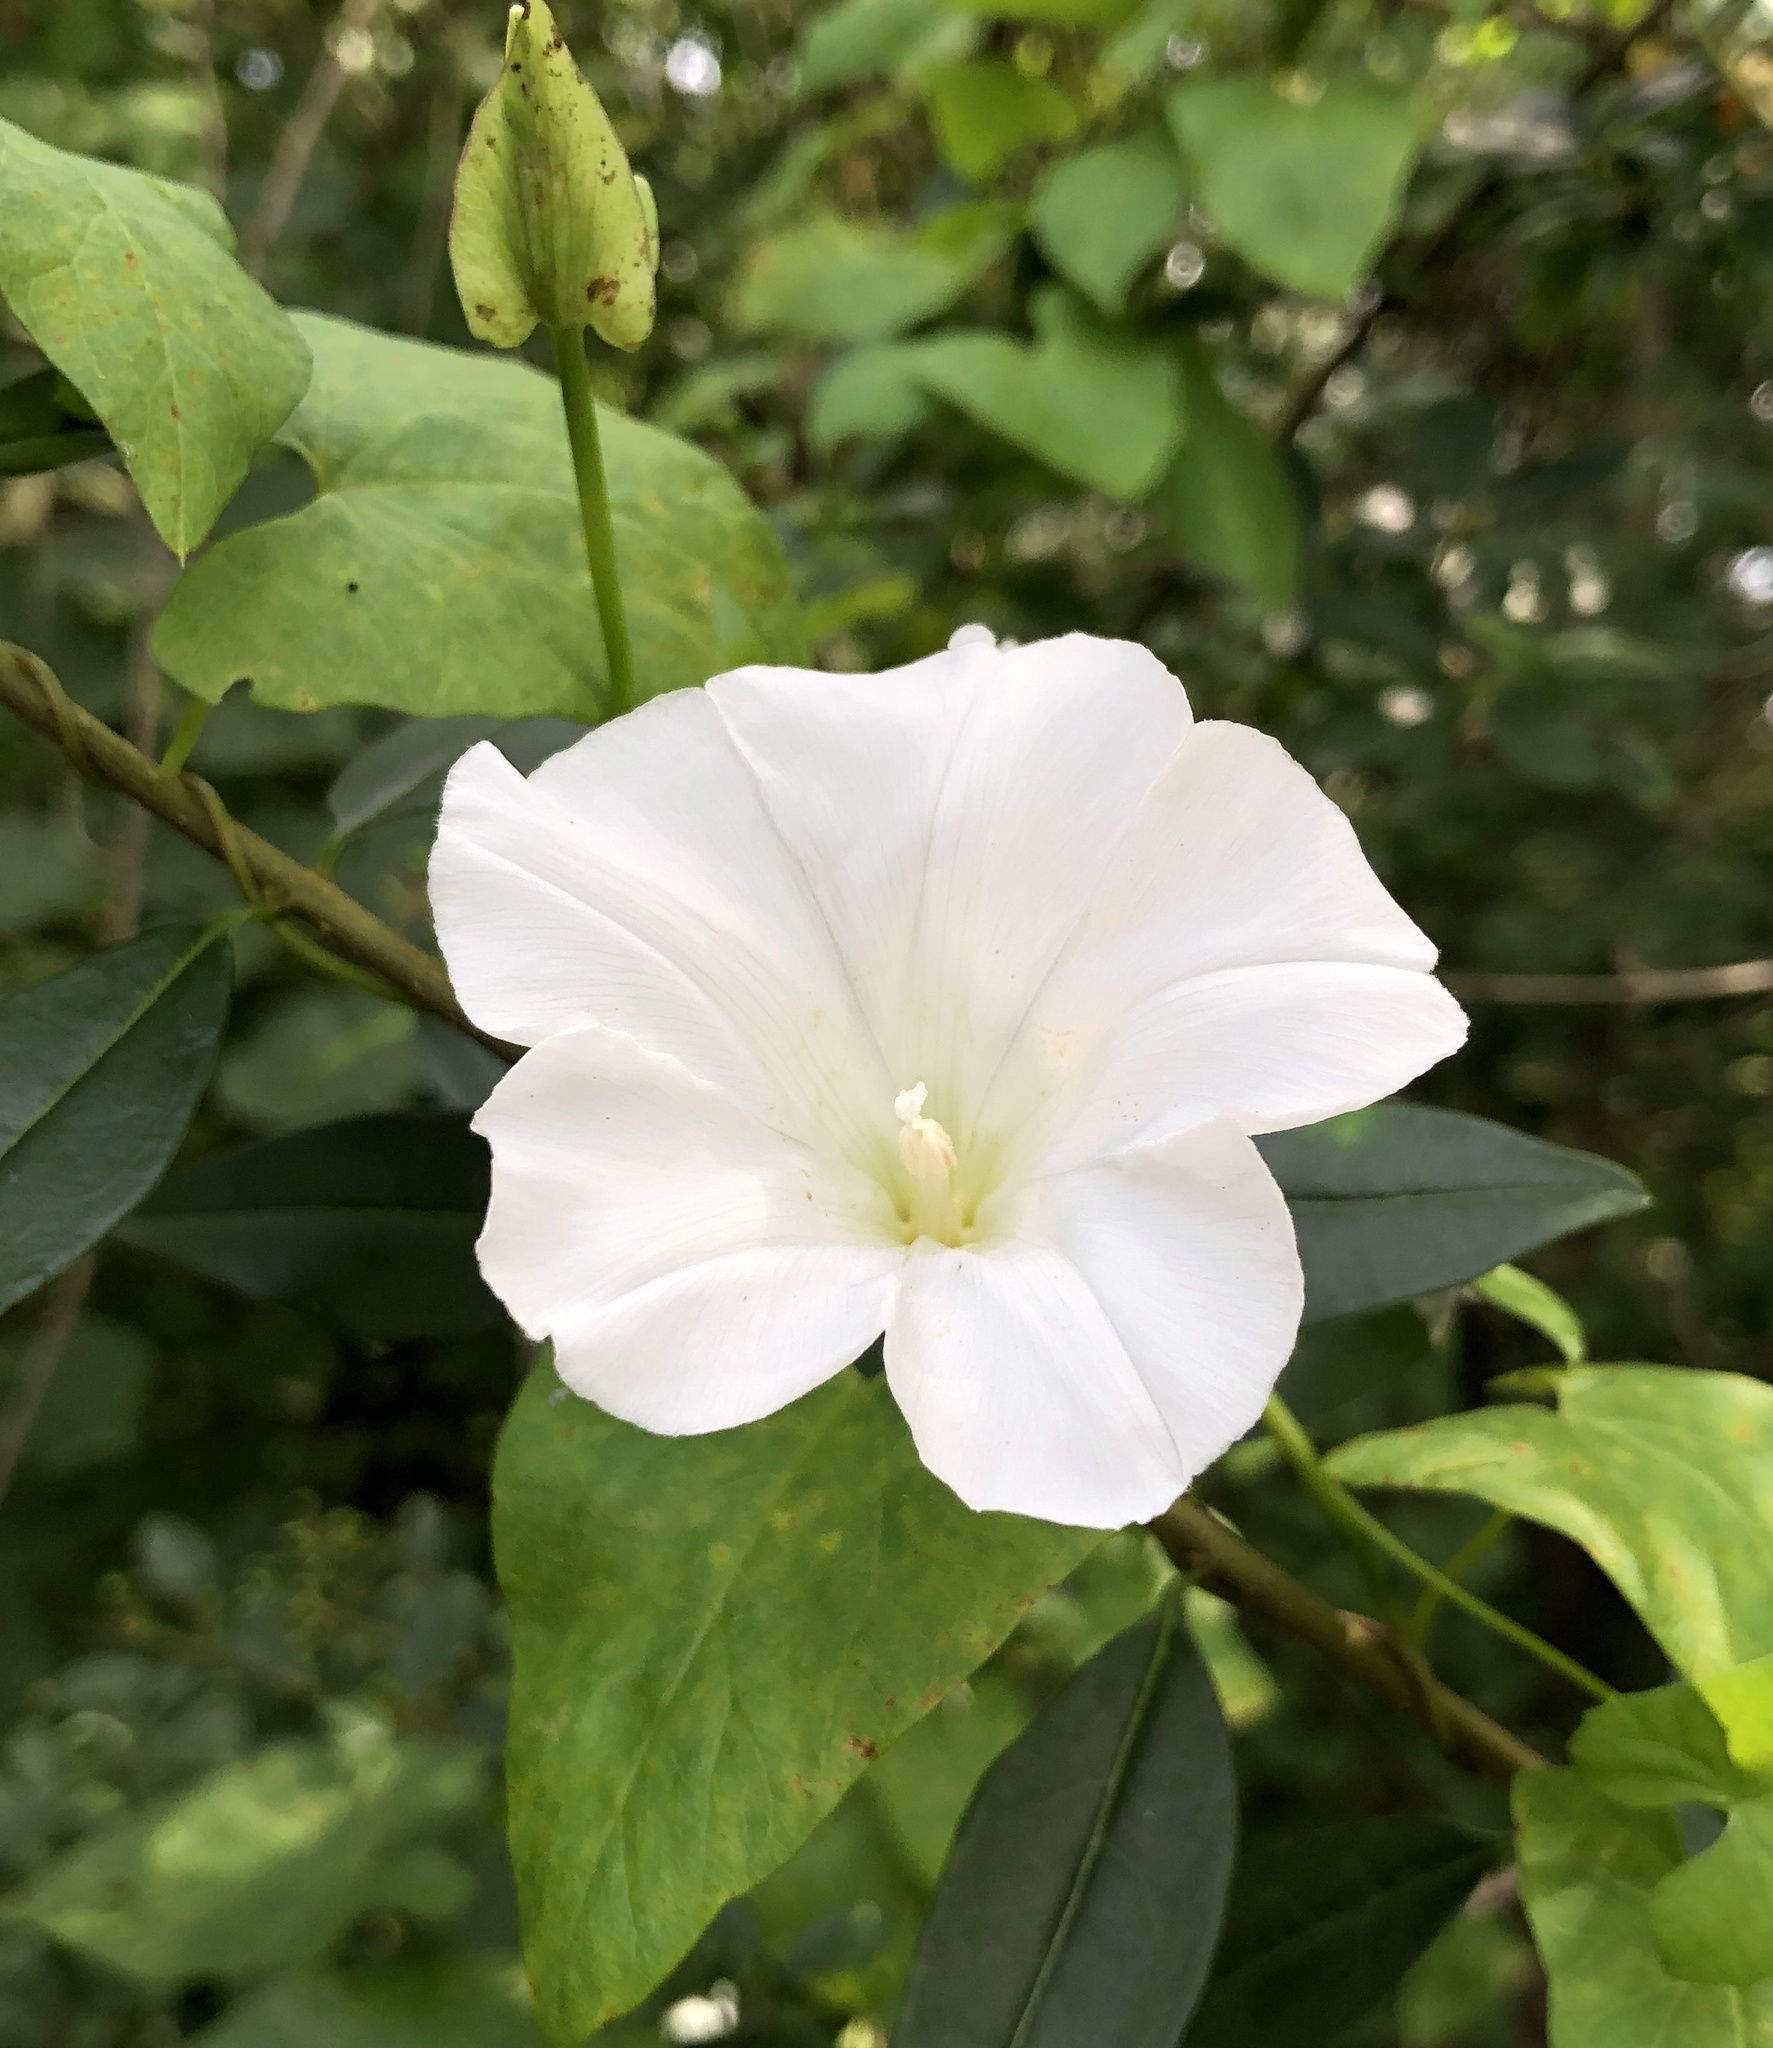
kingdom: Plantae
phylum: Tracheophyta
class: Magnoliopsida
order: Solanales
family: Convolvulaceae
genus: Calystegia
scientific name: Calystegia sepium
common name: Hedge bindweed
